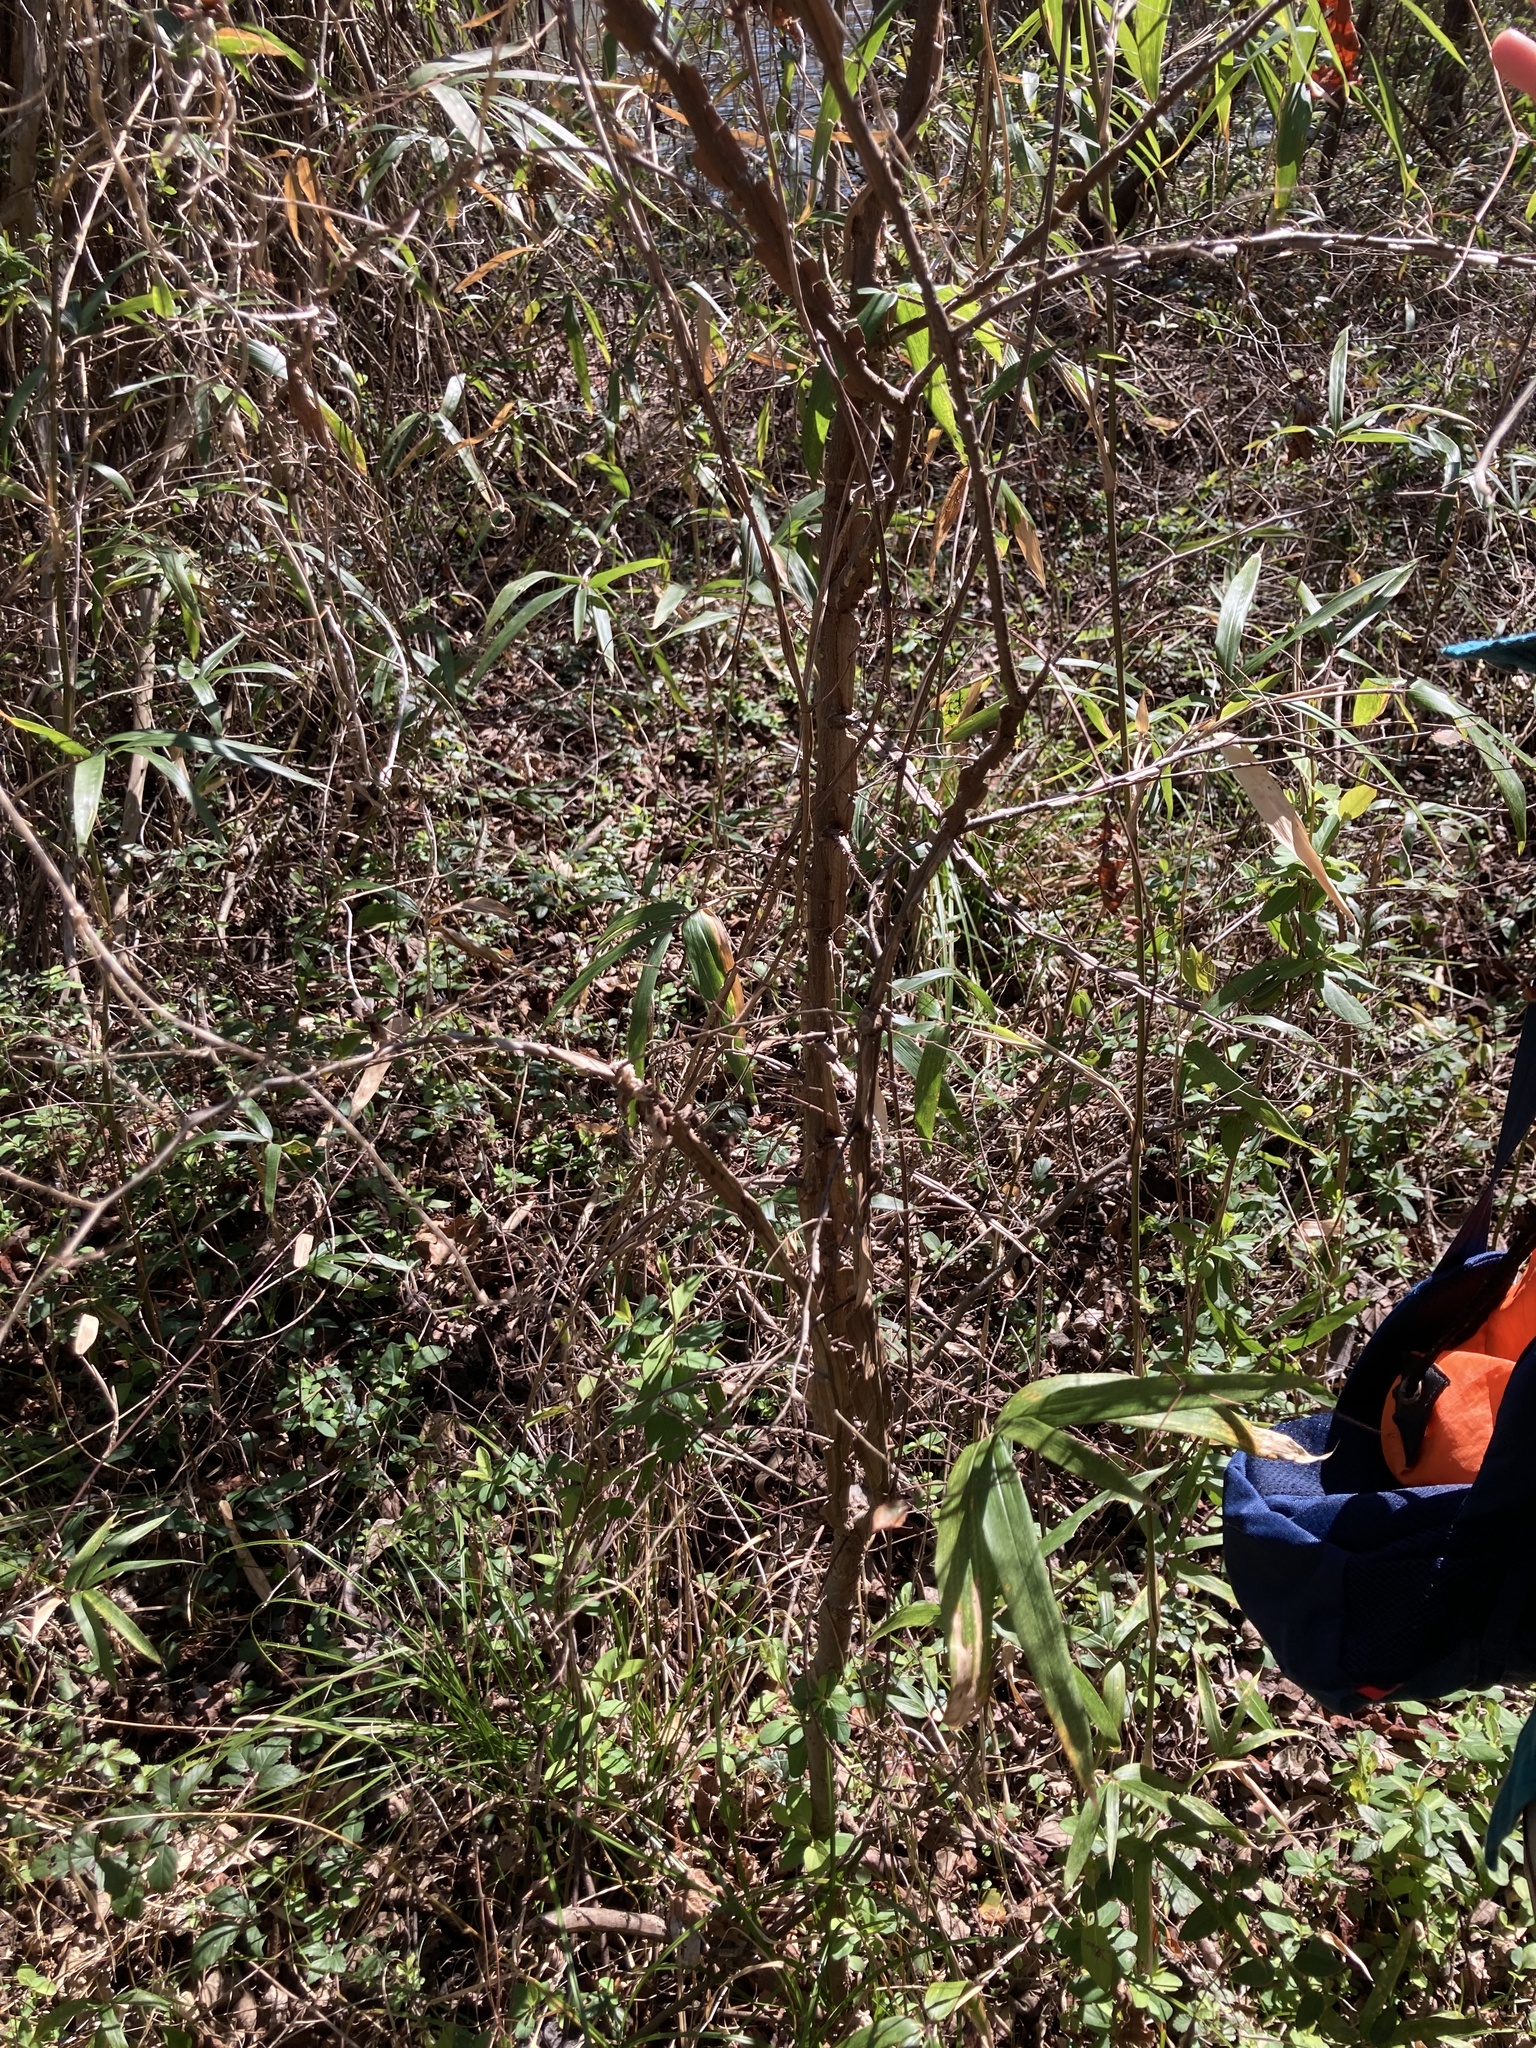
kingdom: Plantae
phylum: Tracheophyta
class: Magnoliopsida
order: Rosales
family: Ulmaceae
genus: Ulmus
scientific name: Ulmus alata
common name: Winged elm
